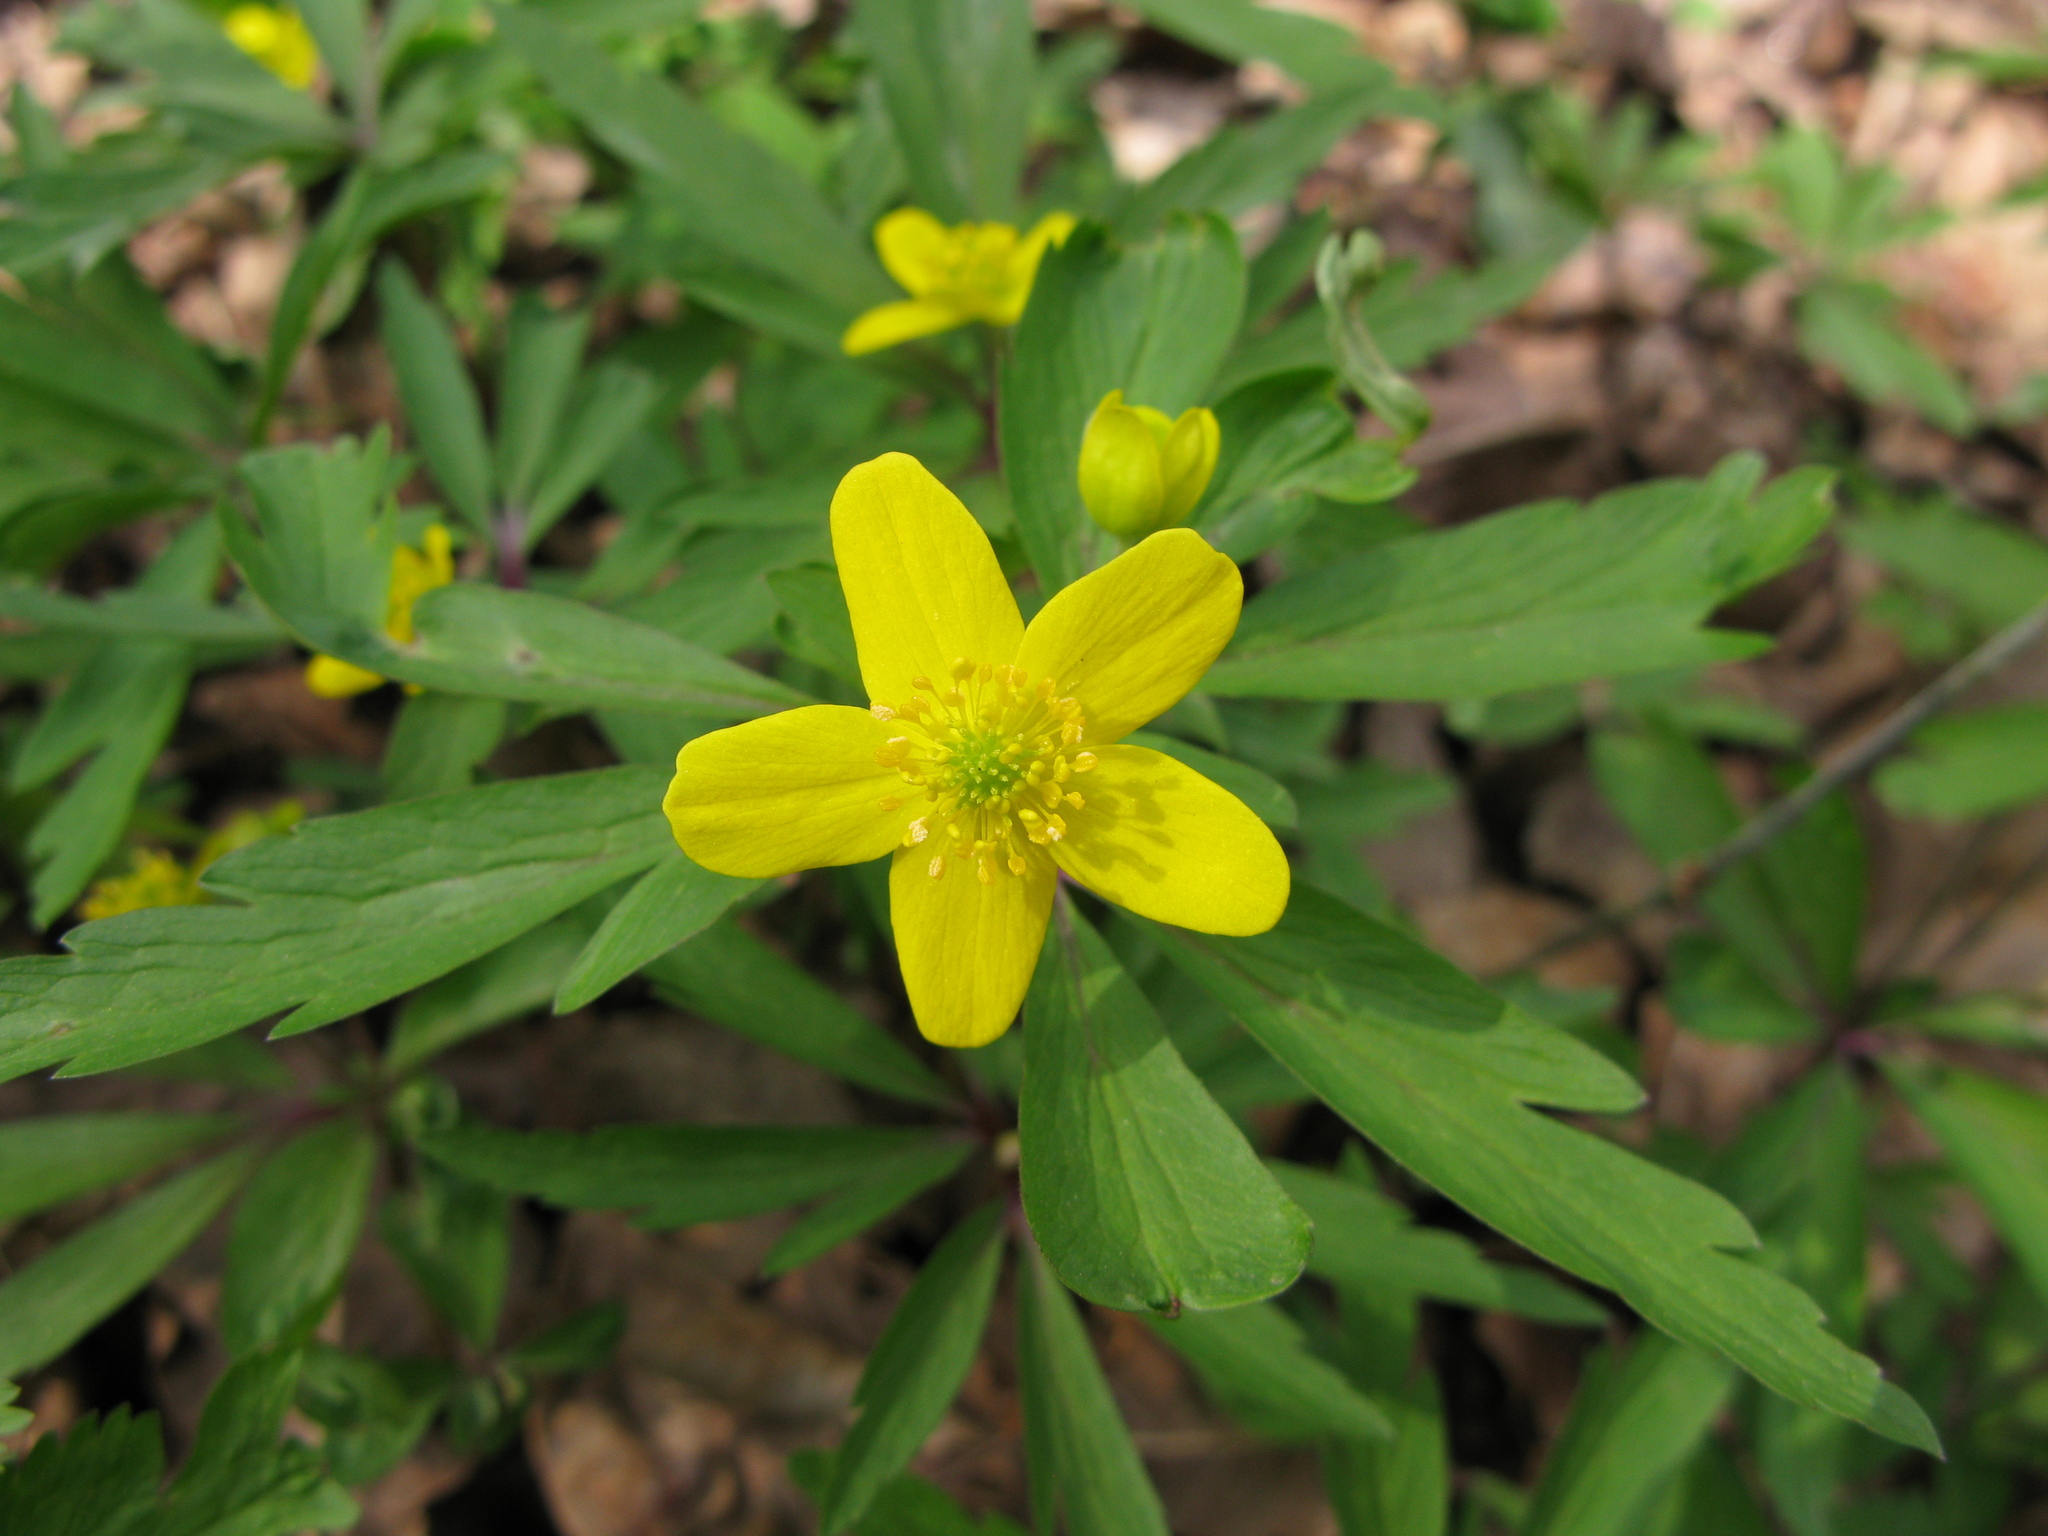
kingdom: Plantae
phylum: Tracheophyta
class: Magnoliopsida
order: Ranunculales
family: Ranunculaceae
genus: Anemone
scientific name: Anemone ranunculoides
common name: Yellow anemone
